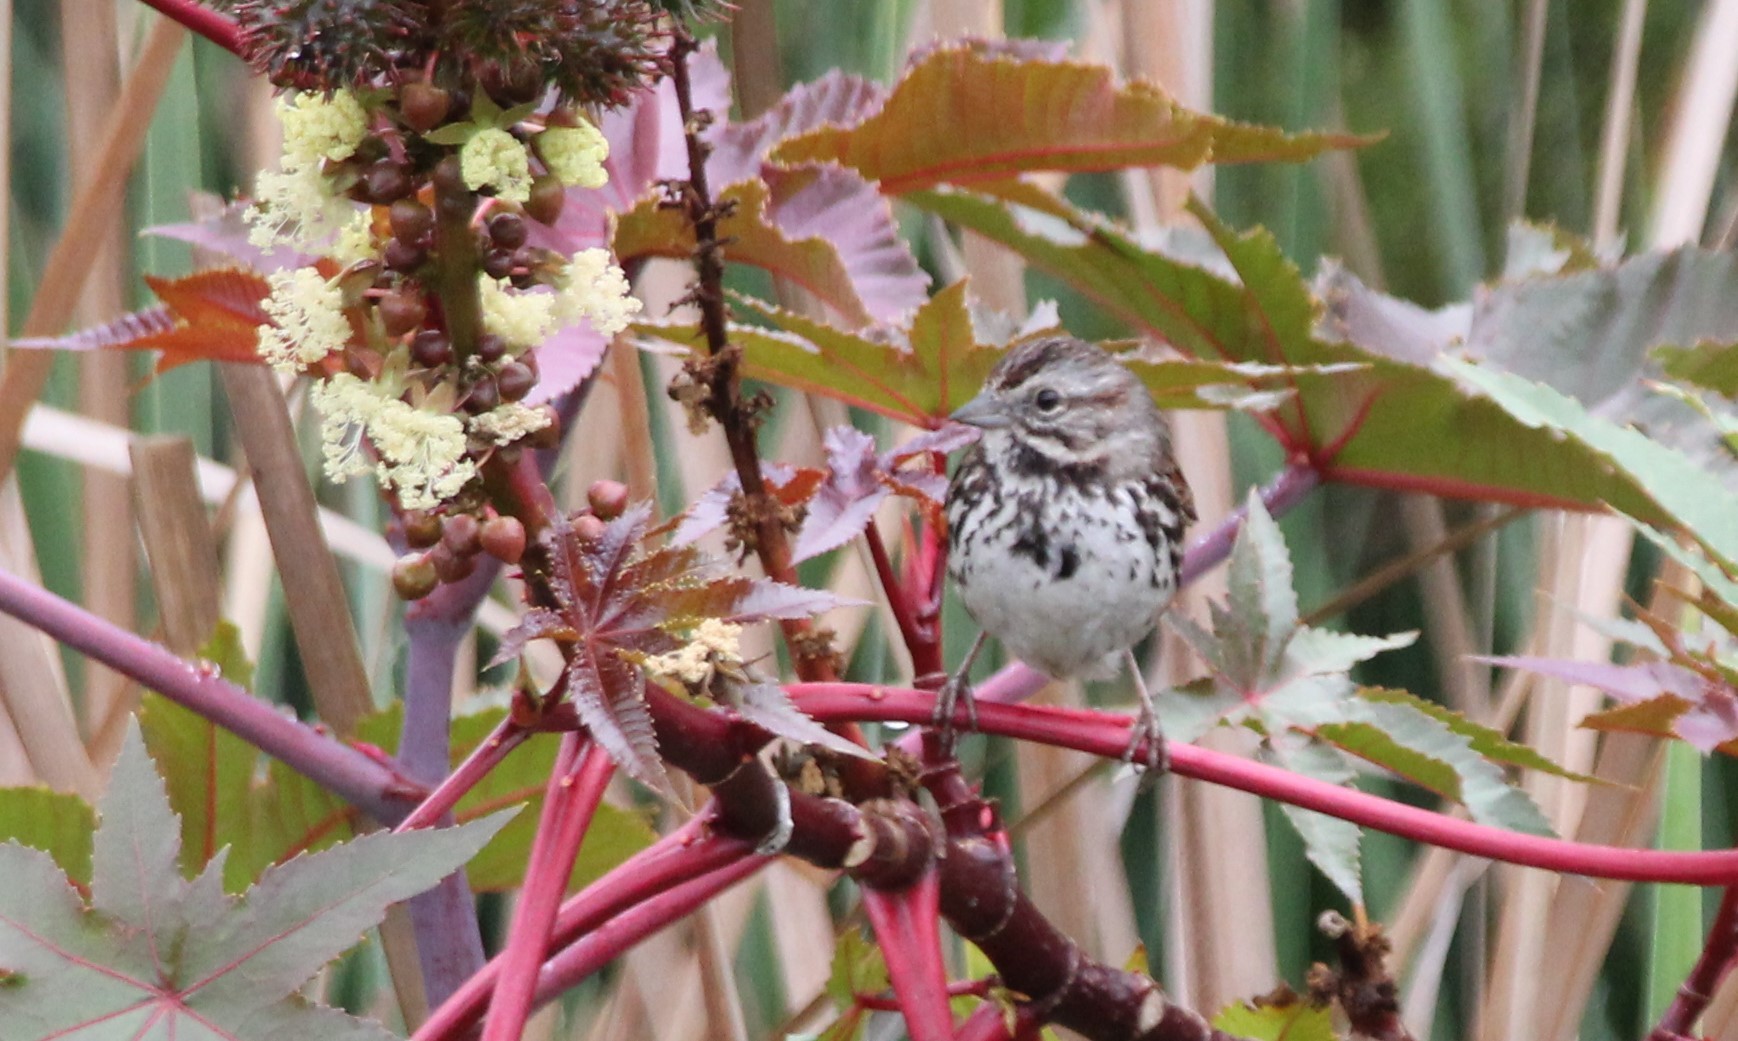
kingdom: Animalia
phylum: Chordata
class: Aves
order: Passeriformes
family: Passerellidae
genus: Melospiza
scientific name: Melospiza melodia
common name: Song sparrow
